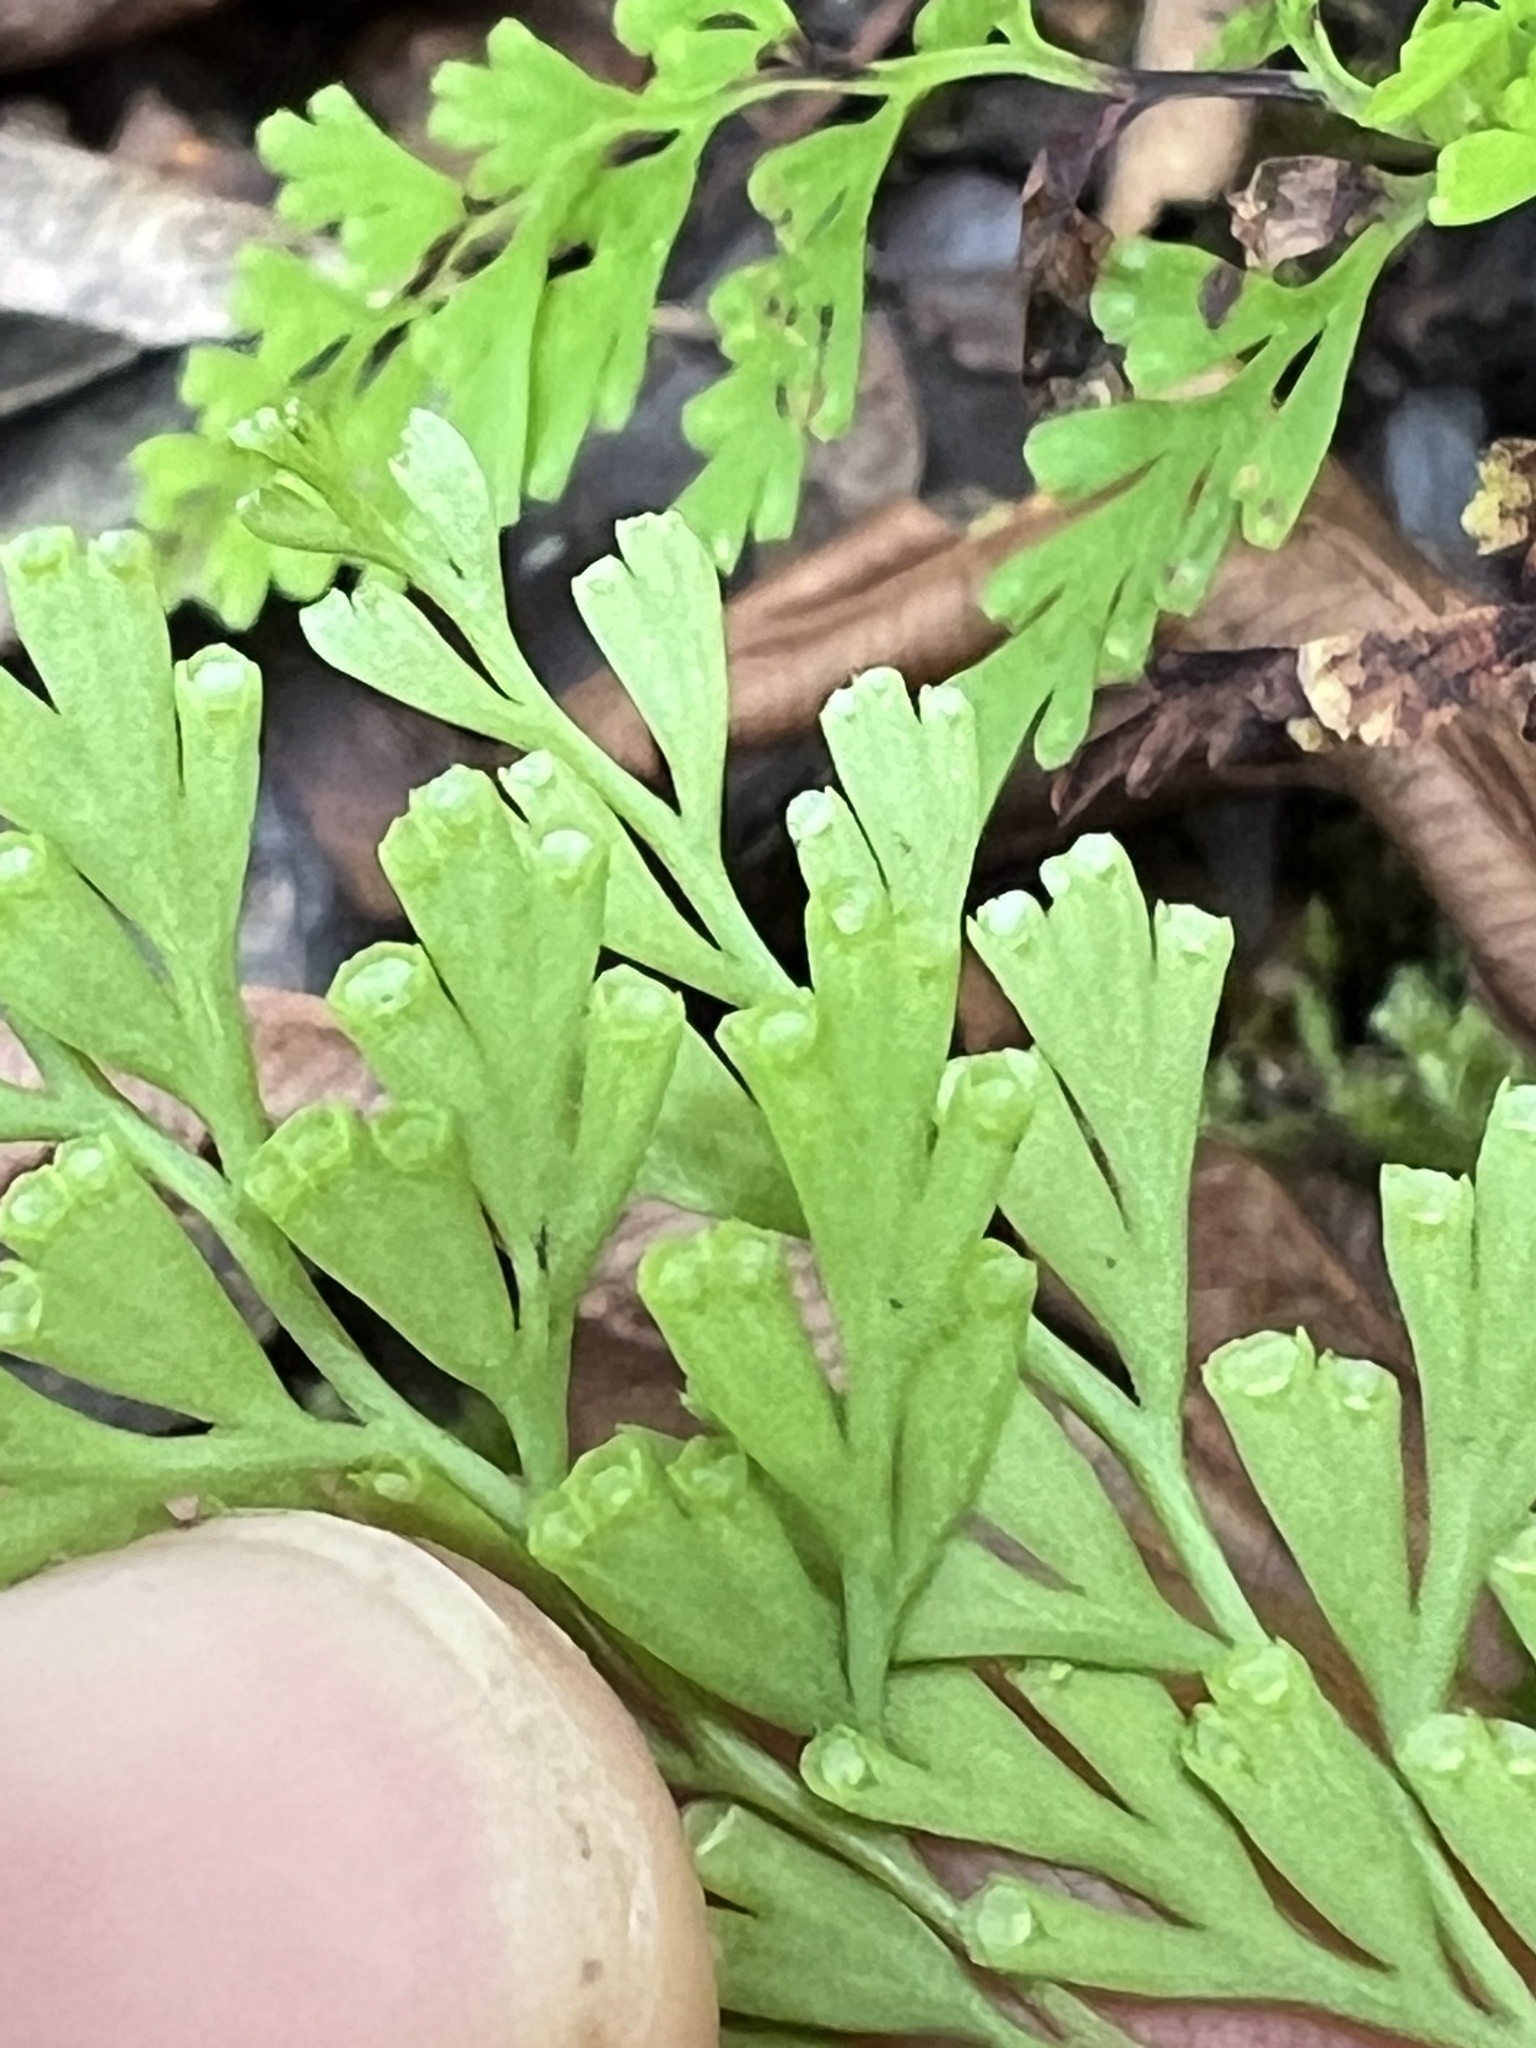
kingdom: Plantae
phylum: Tracheophyta
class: Polypodiopsida
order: Polypodiales
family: Lindsaeaceae
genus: Odontosoria
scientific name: Odontosoria chinensis
